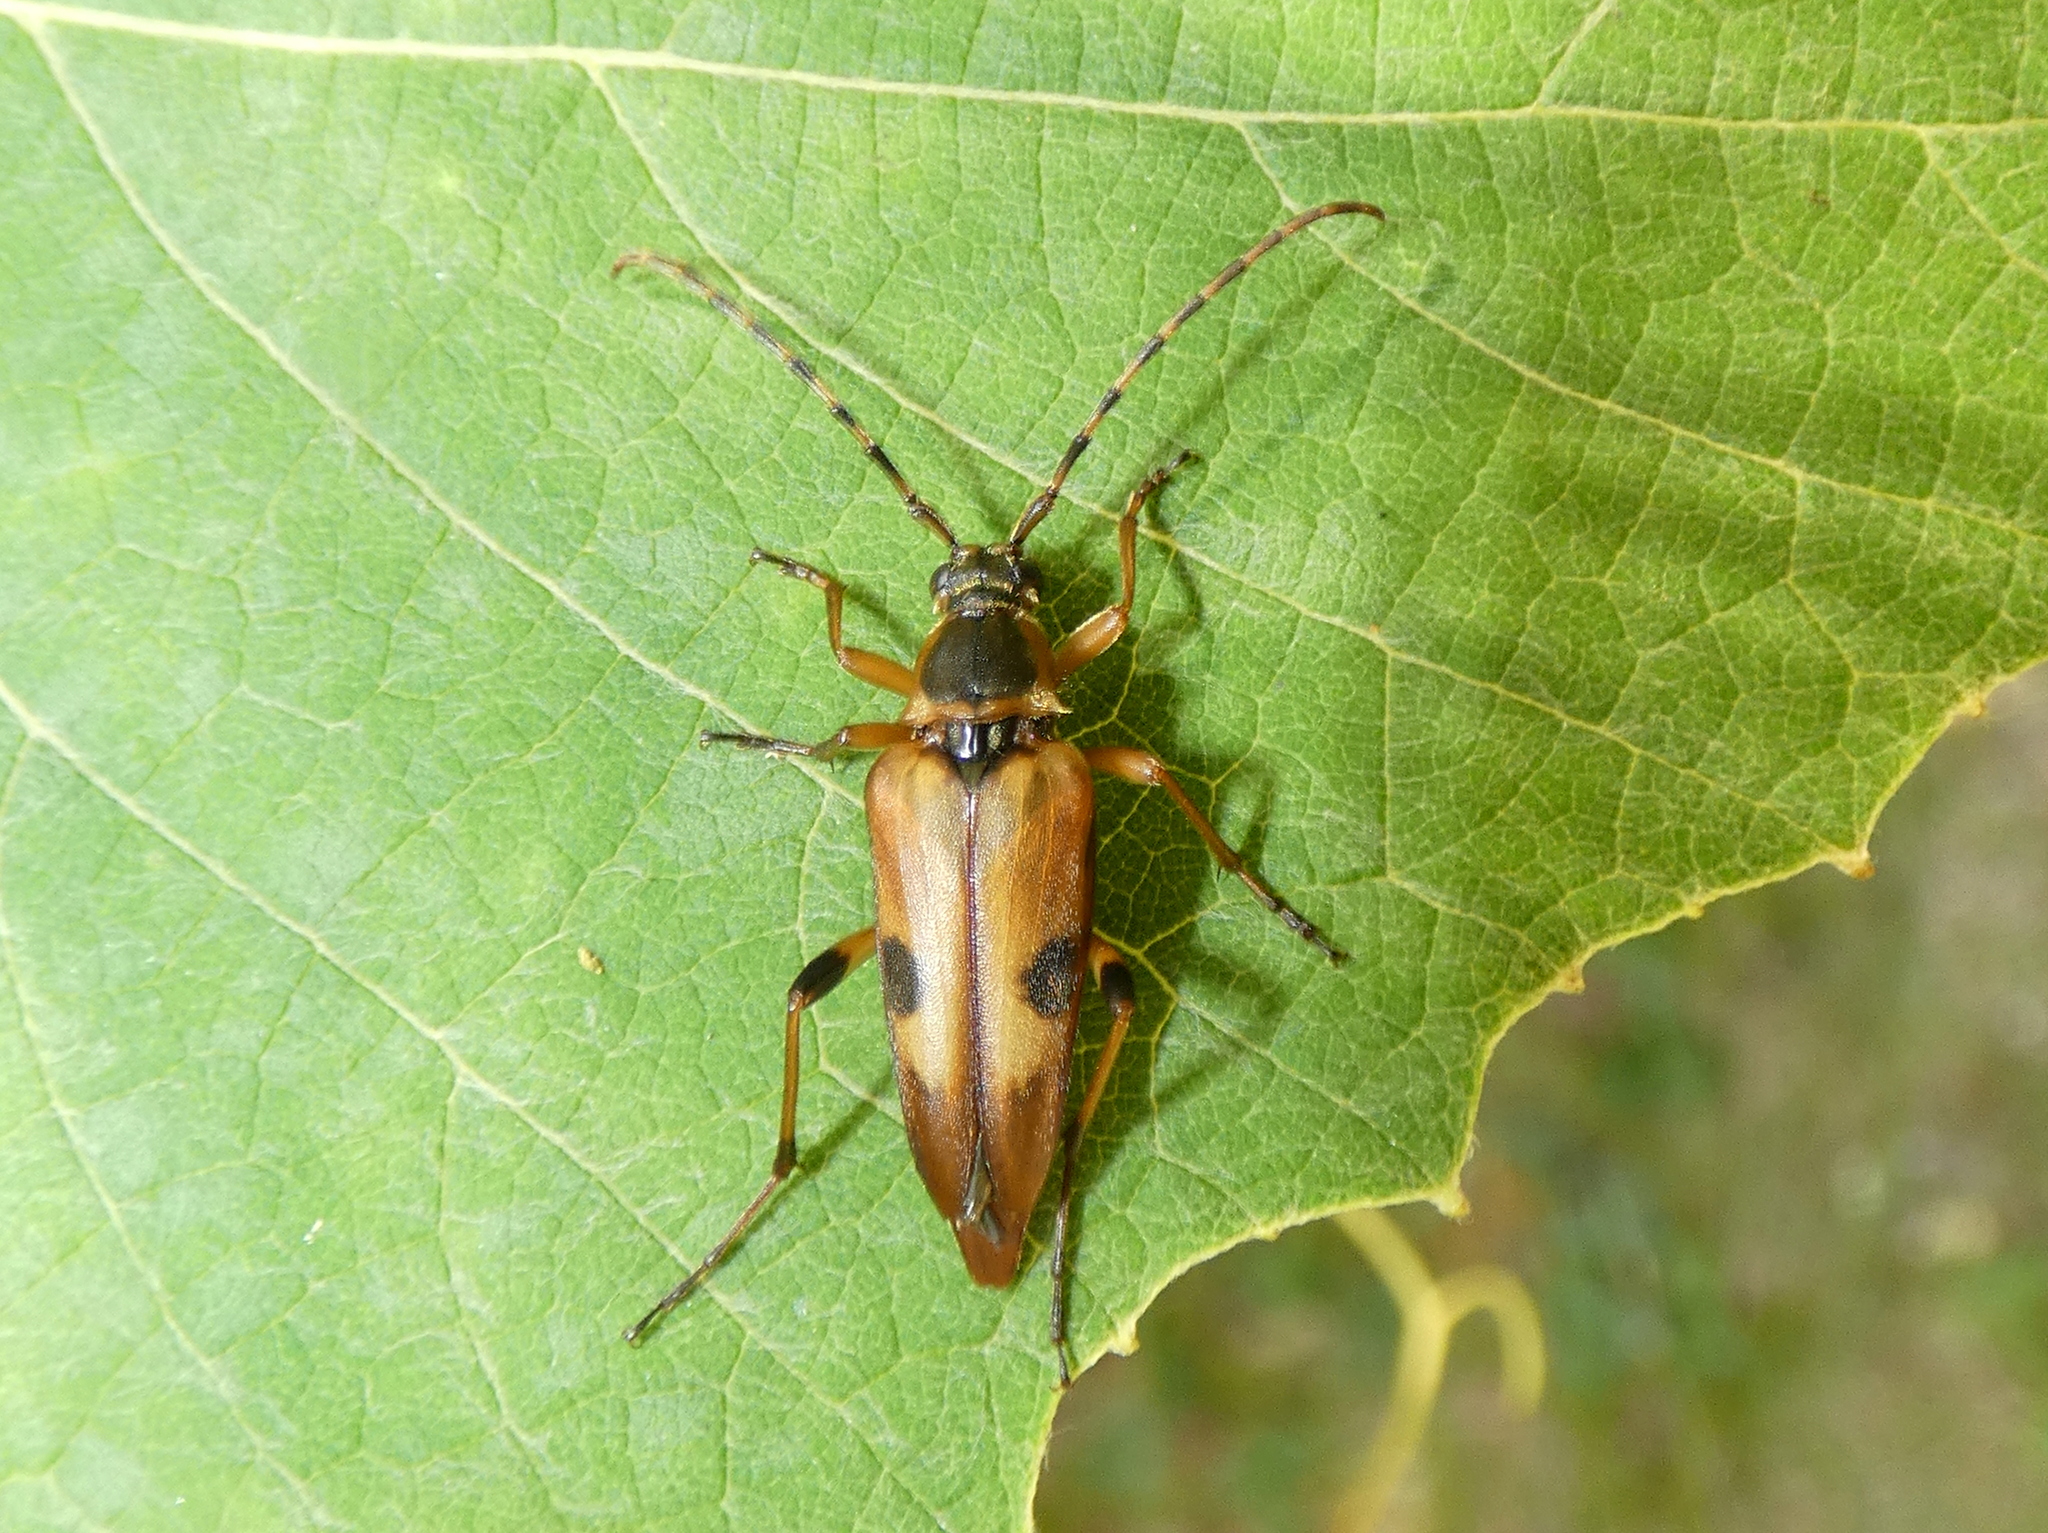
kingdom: Animalia
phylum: Arthropoda
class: Insecta
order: Coleoptera
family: Cerambycidae
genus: Etorofus
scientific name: Etorofus
